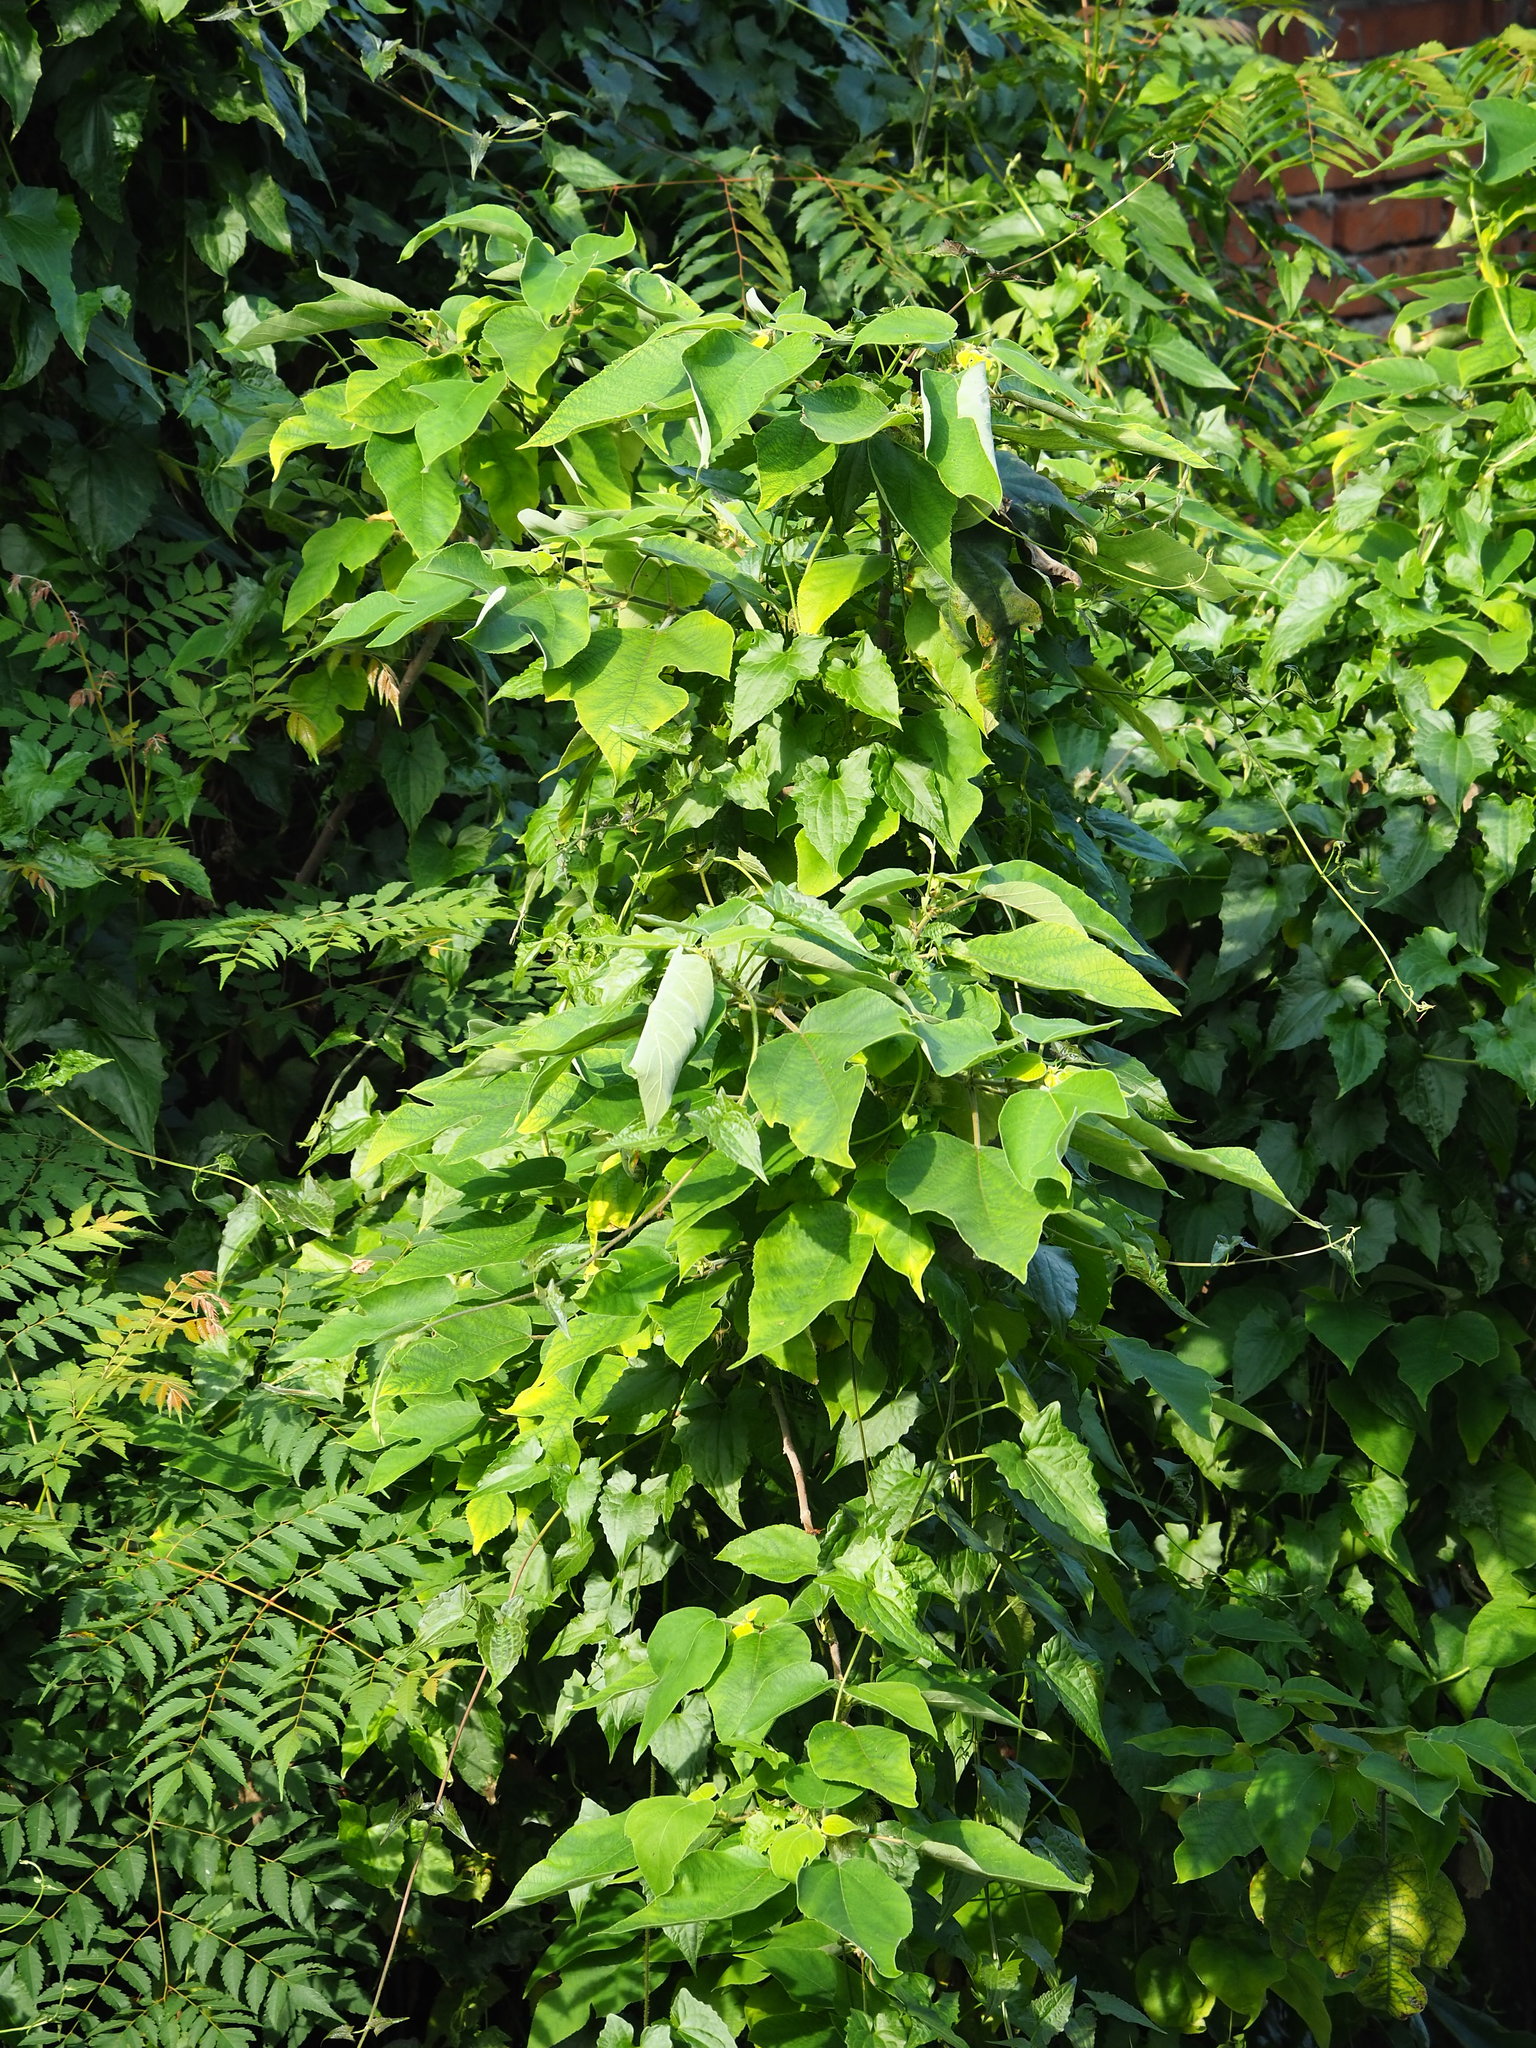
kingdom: Plantae
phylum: Tracheophyta
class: Magnoliopsida
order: Rosales
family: Moraceae
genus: Broussonetia
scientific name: Broussonetia papyrifera
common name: Paper mulberry
